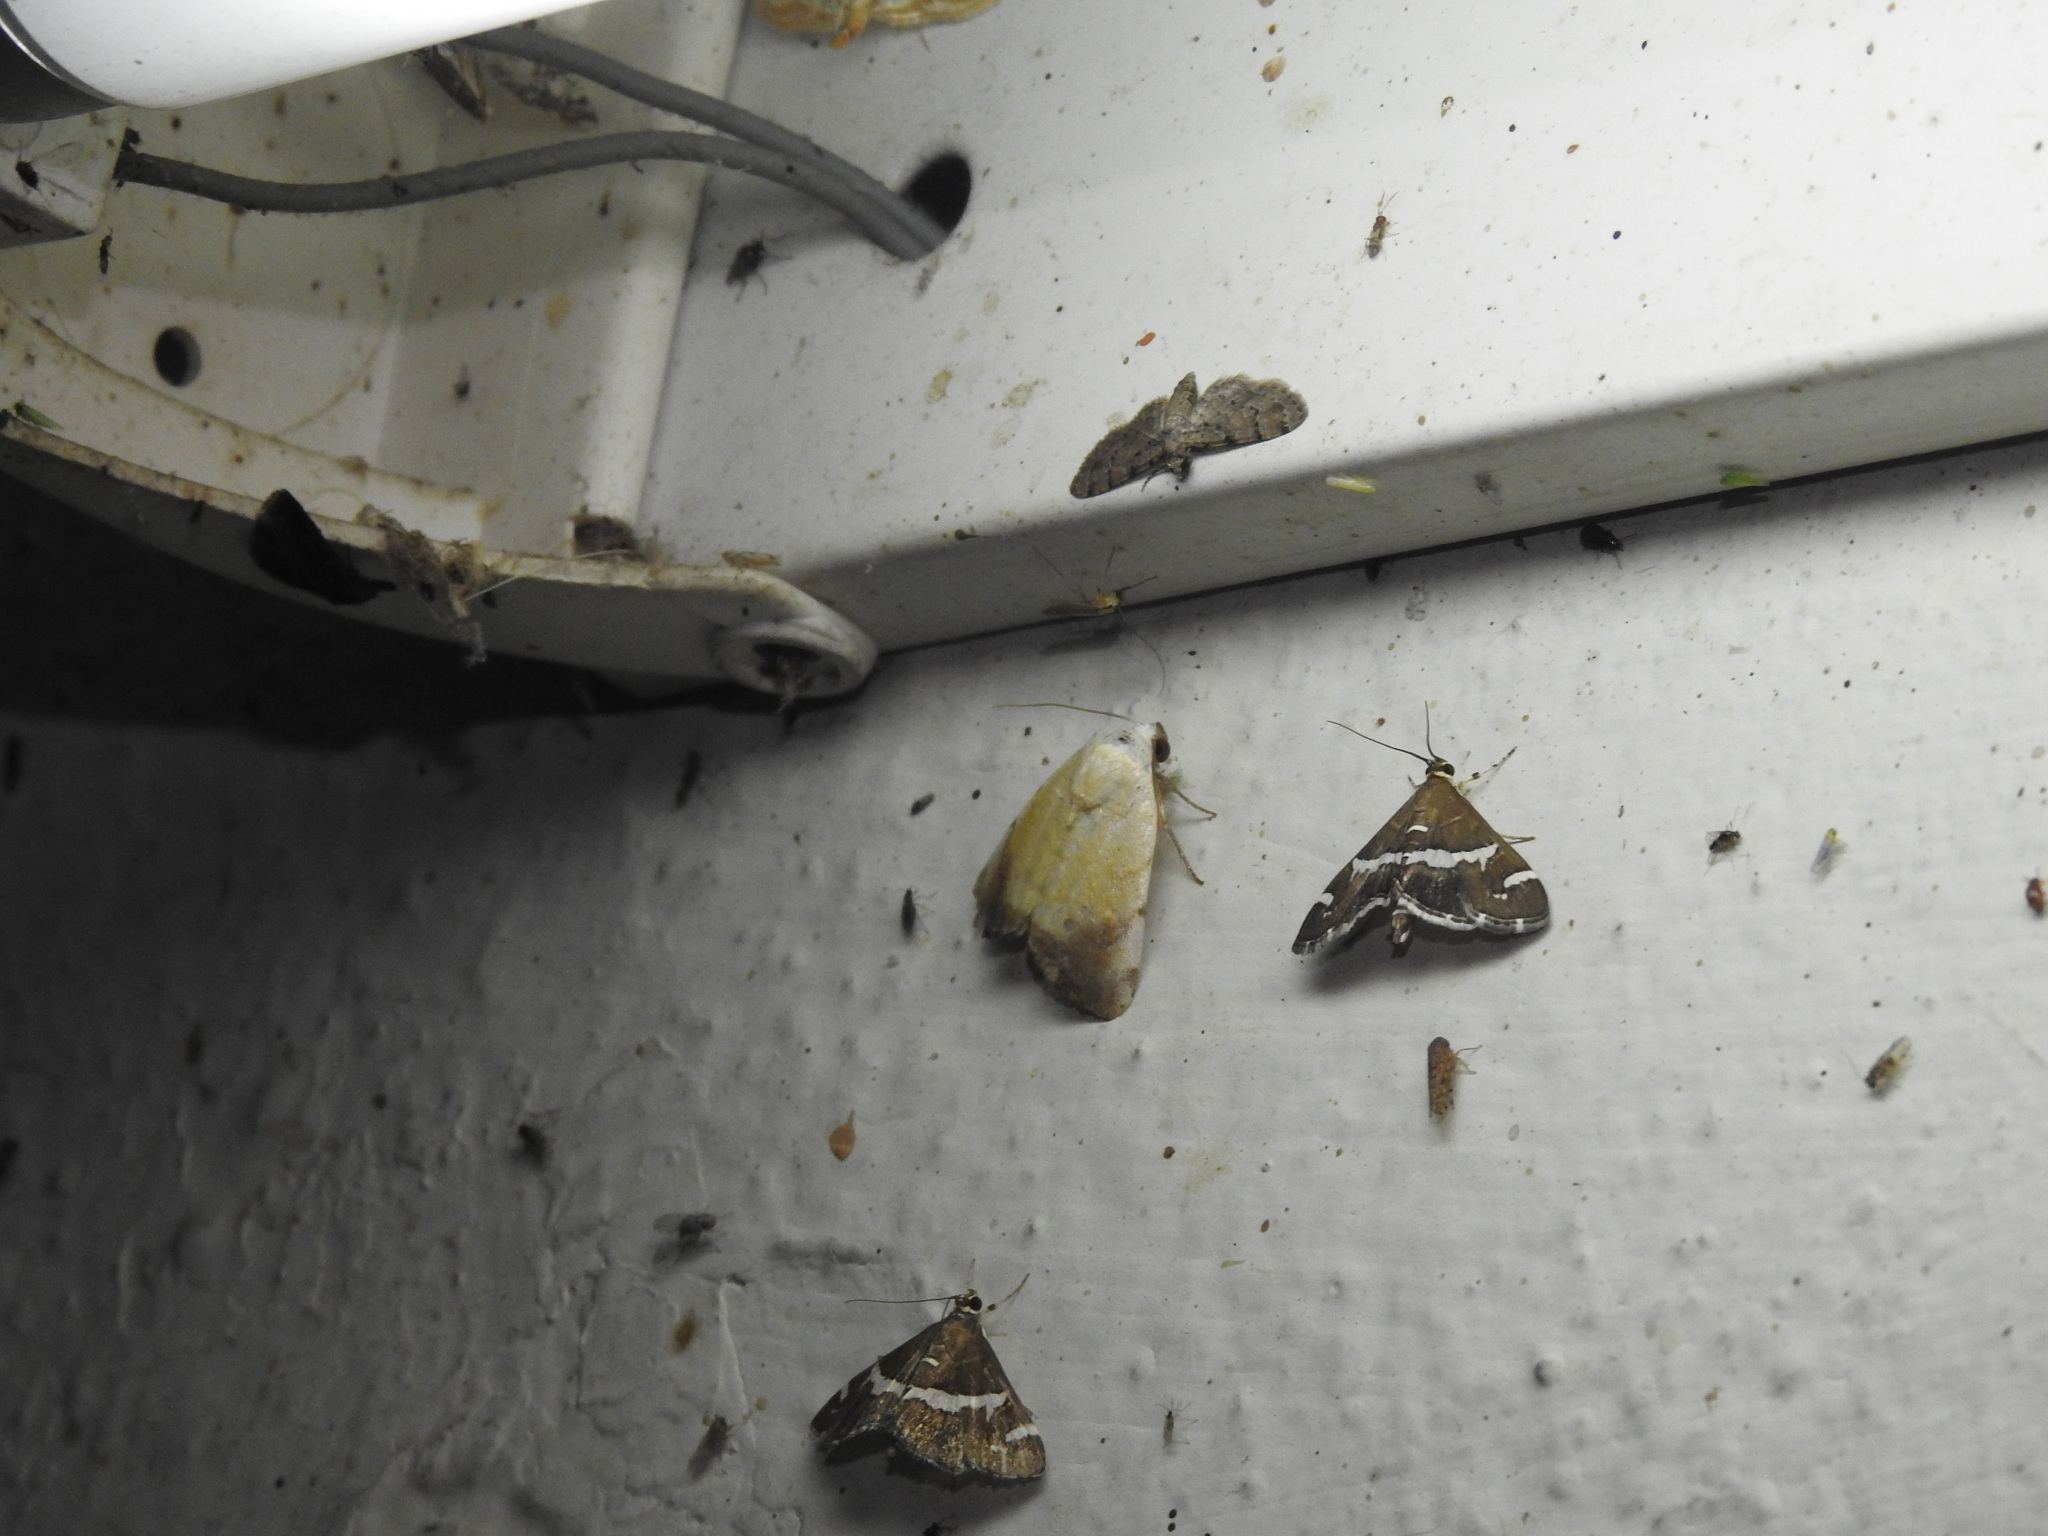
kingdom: Animalia
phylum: Arthropoda
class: Insecta
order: Lepidoptera
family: Crambidae
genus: Spoladea
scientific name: Spoladea recurvalis
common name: Beet webworm moth
